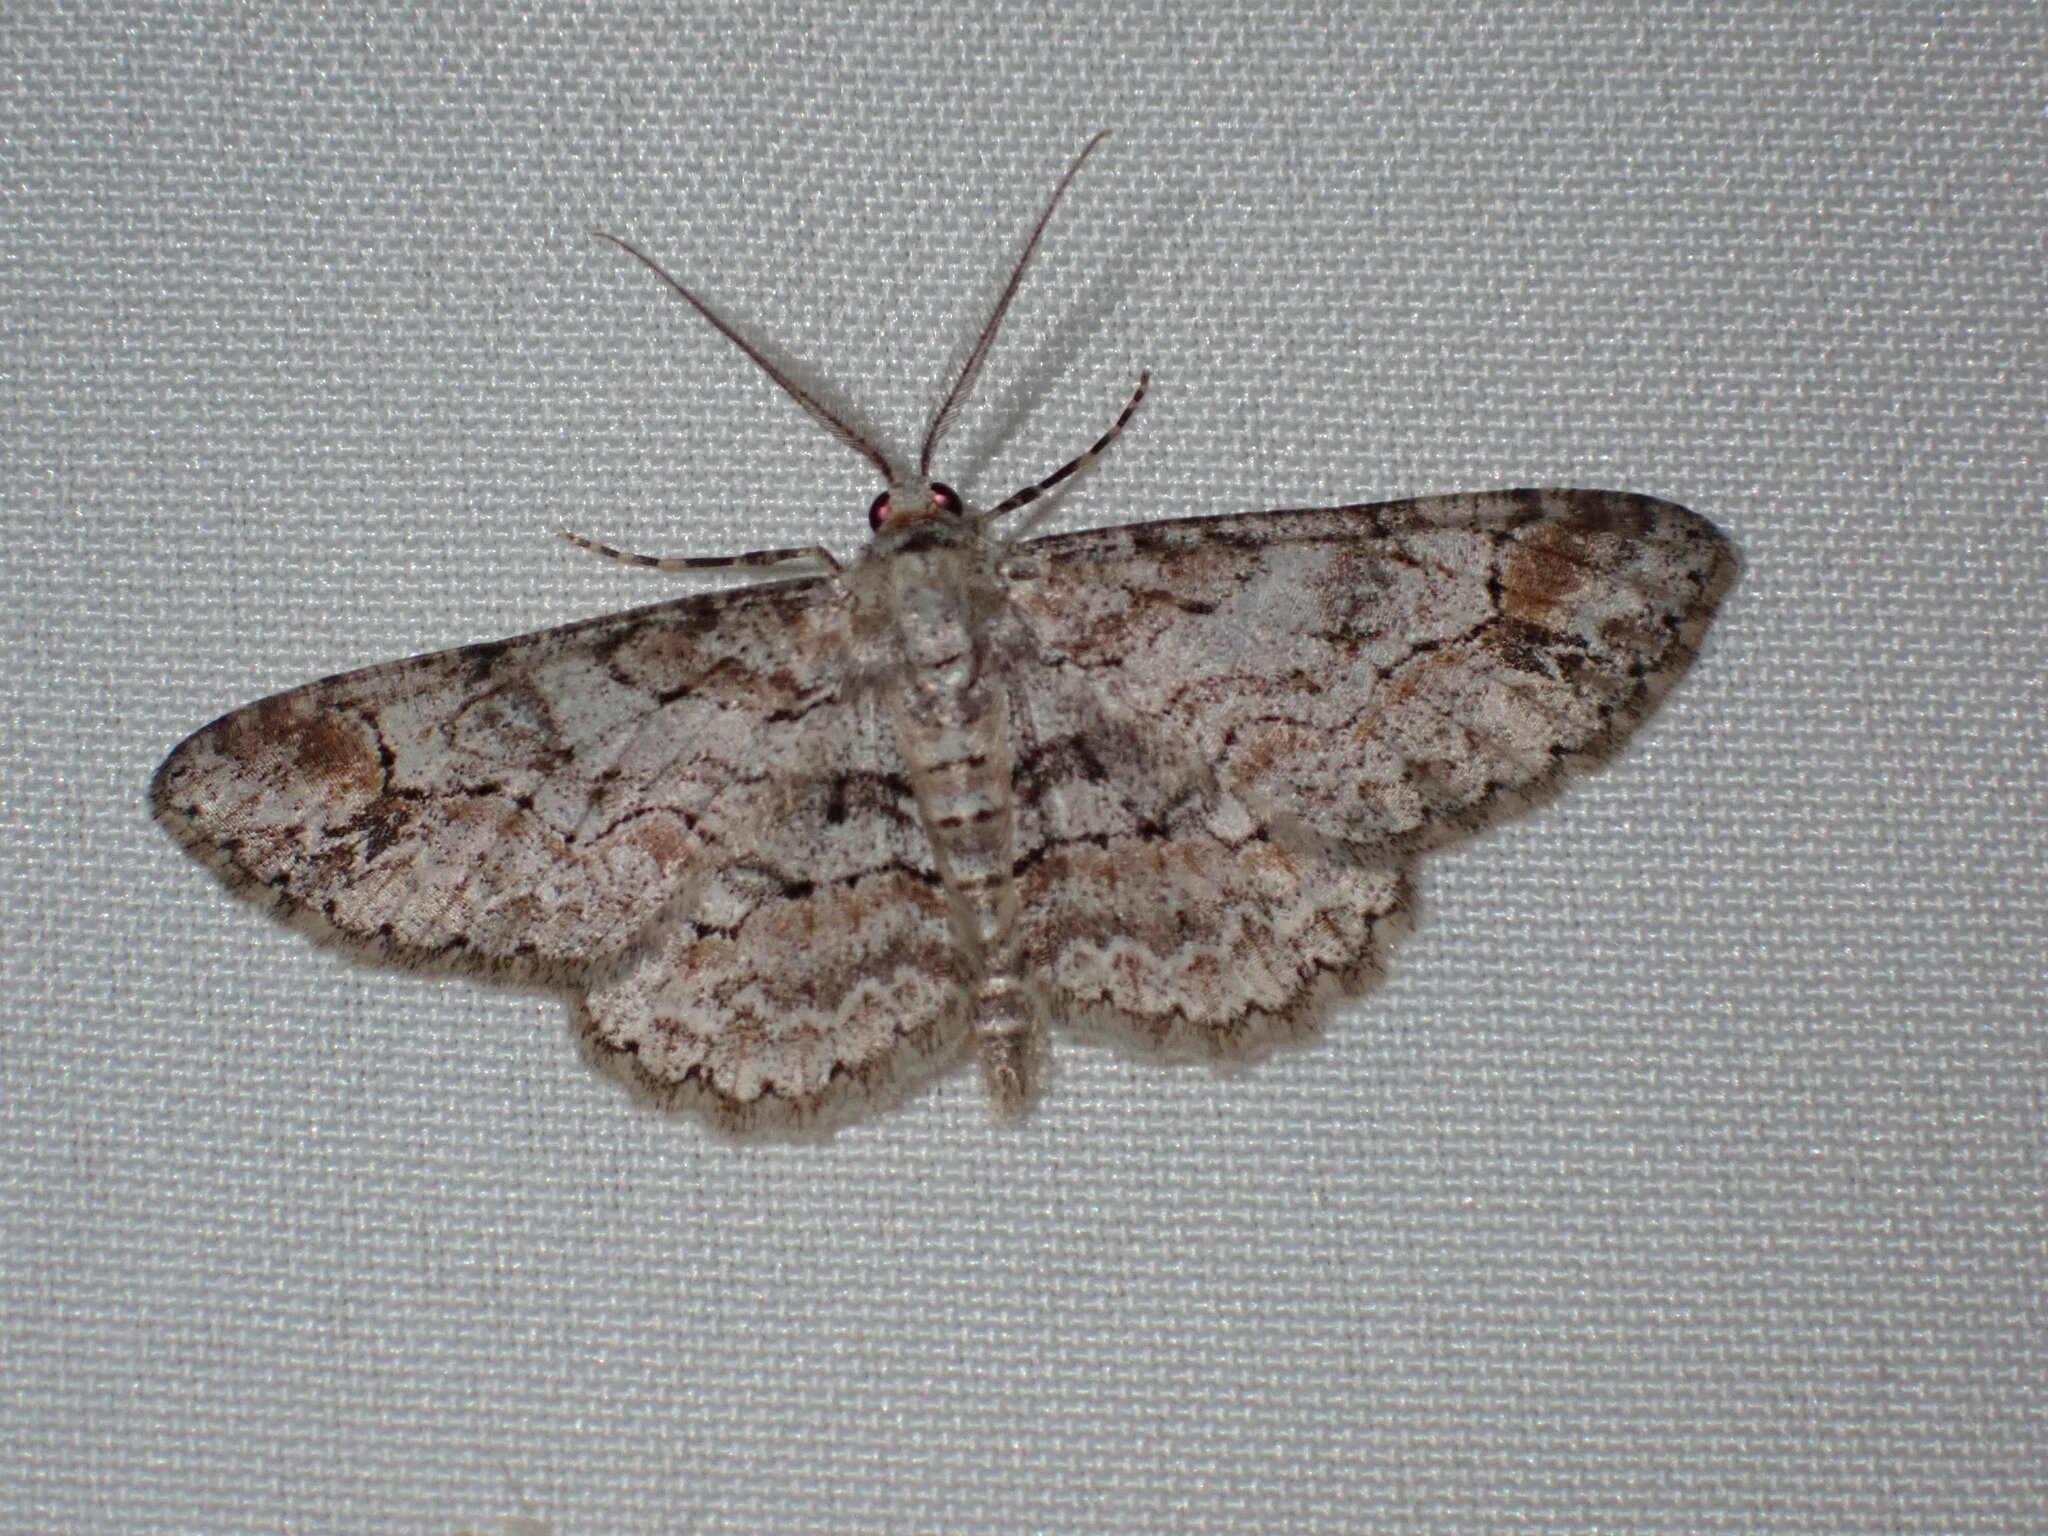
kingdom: Animalia
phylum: Arthropoda
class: Insecta
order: Lepidoptera
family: Geometridae
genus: Iridopsis
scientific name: Iridopsis emasculatum
